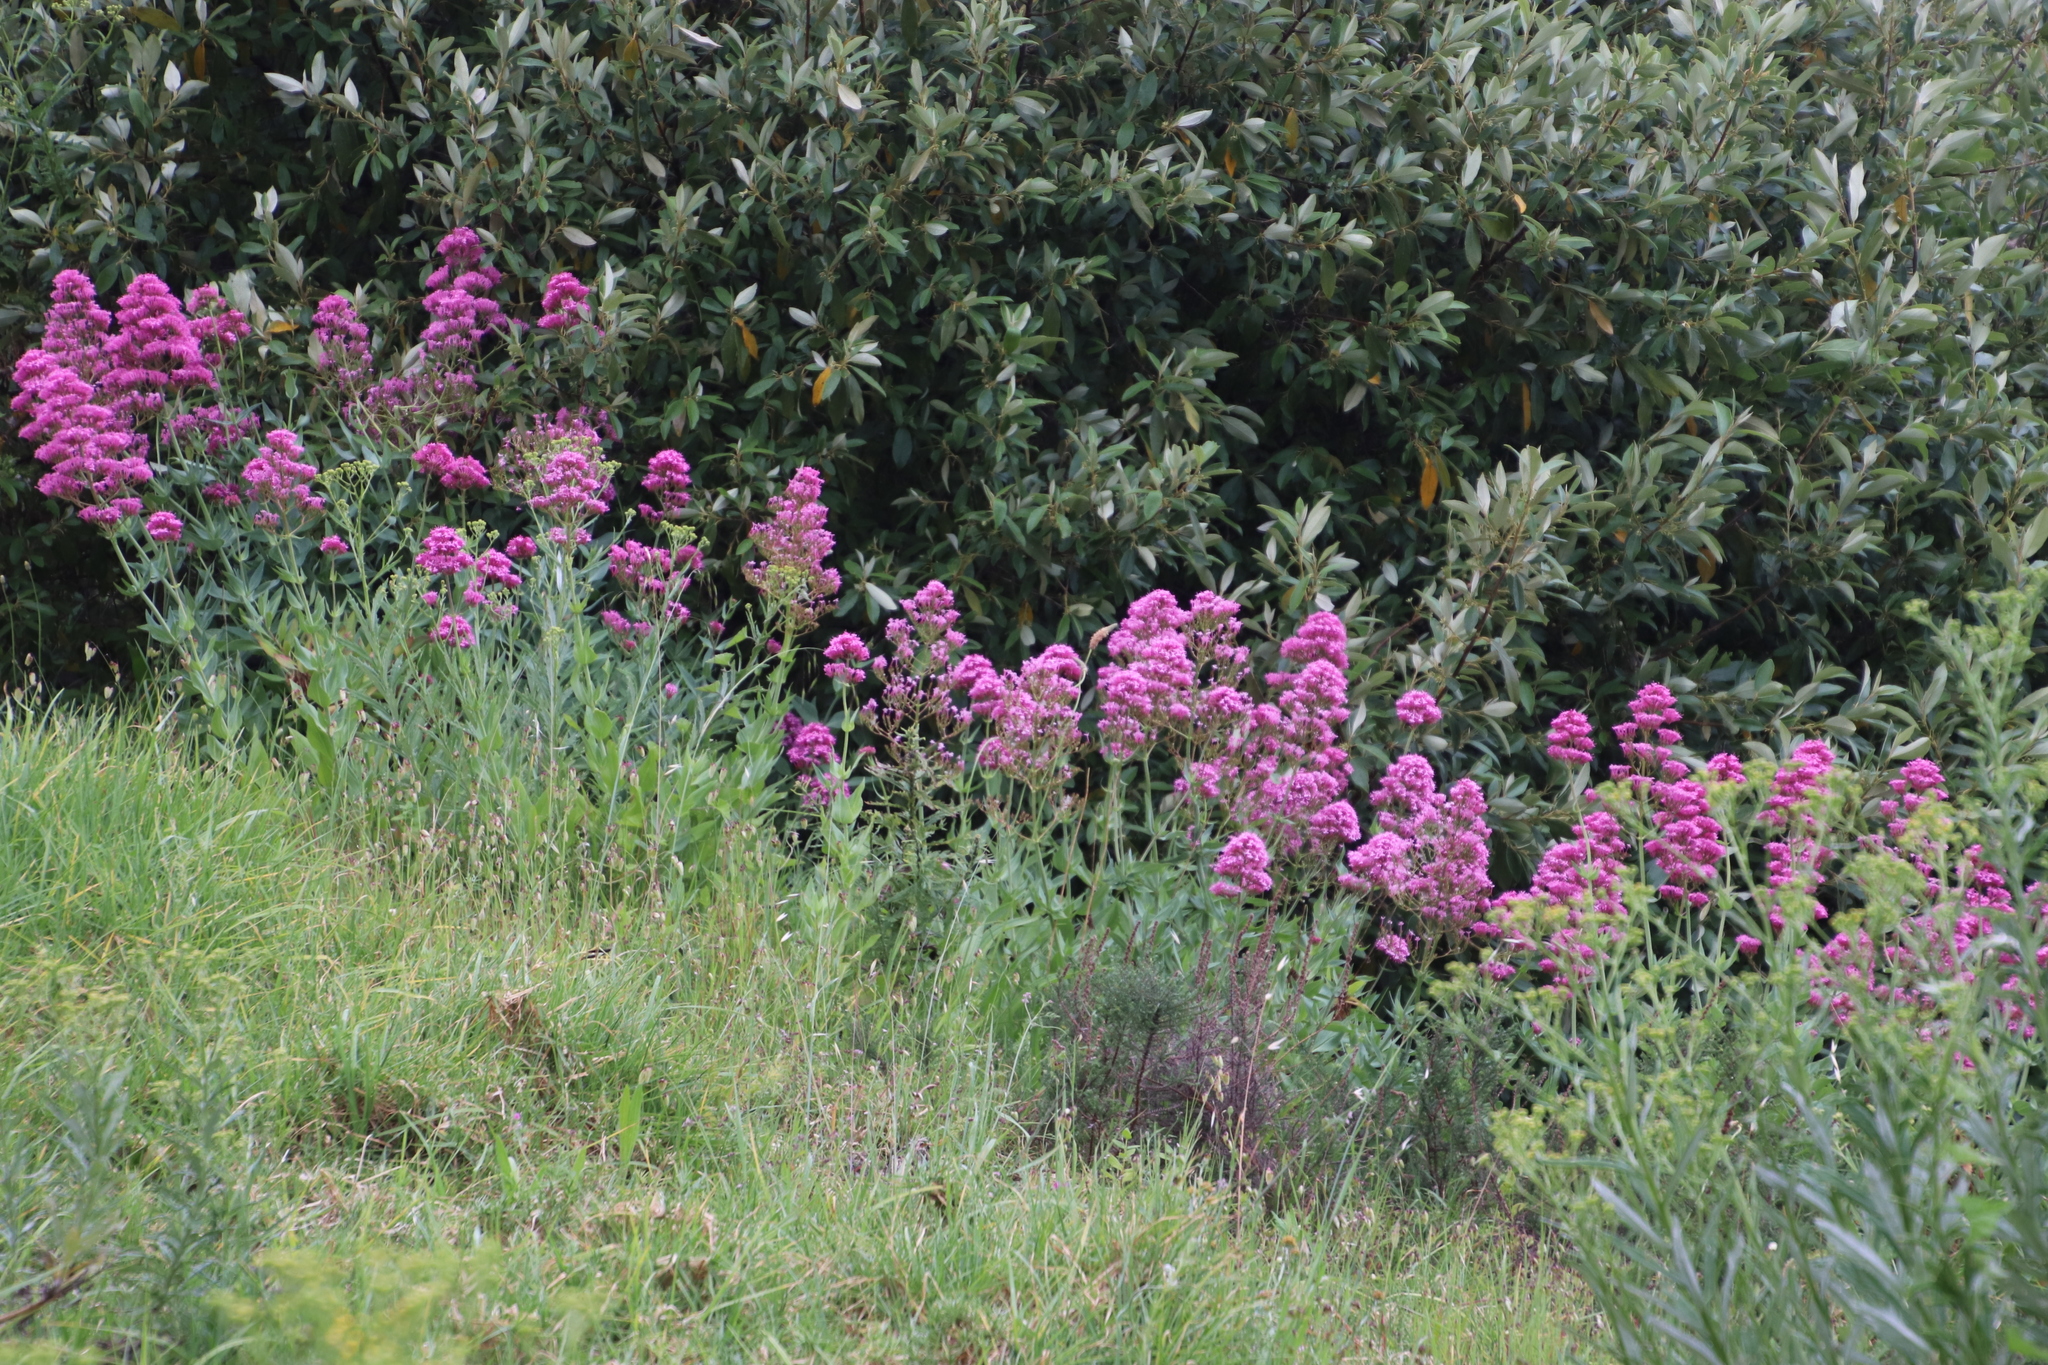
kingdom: Plantae
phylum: Tracheophyta
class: Magnoliopsida
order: Dipsacales
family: Caprifoliaceae
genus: Centranthus
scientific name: Centranthus ruber
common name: Red valerian
